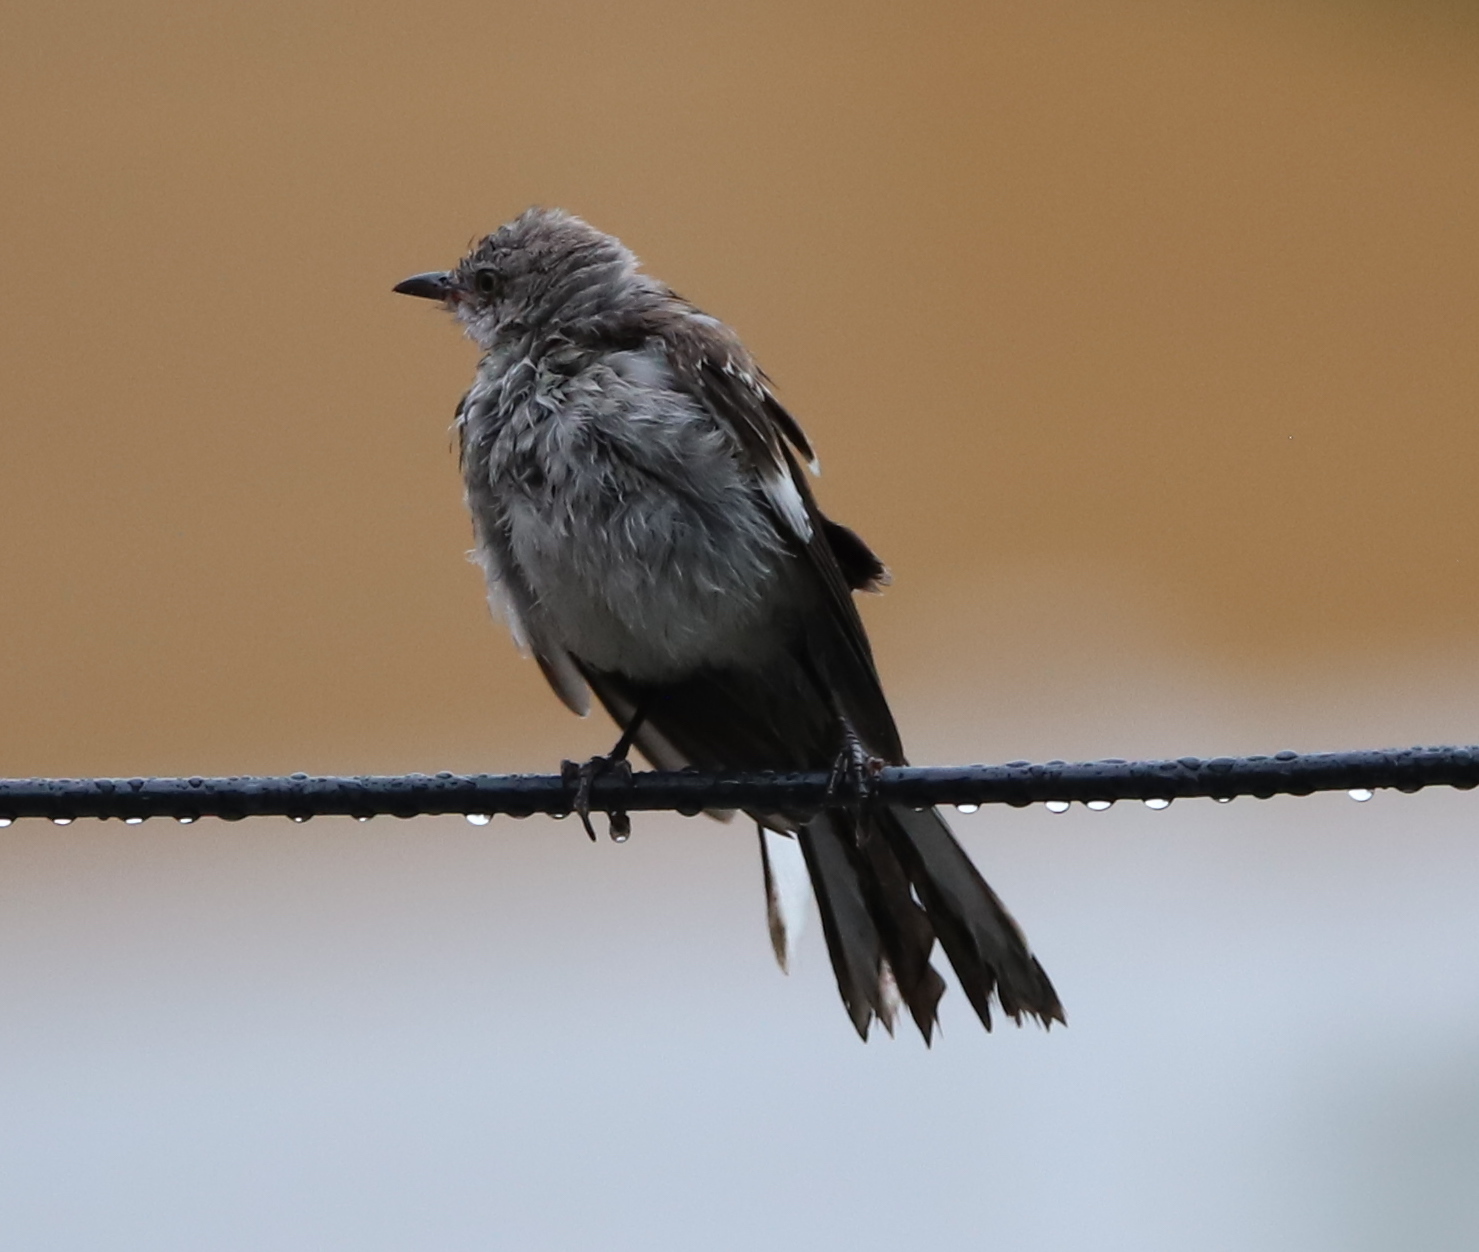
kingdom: Animalia
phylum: Chordata
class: Aves
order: Passeriformes
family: Mimidae
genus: Mimus
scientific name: Mimus polyglottos
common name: Northern mockingbird
